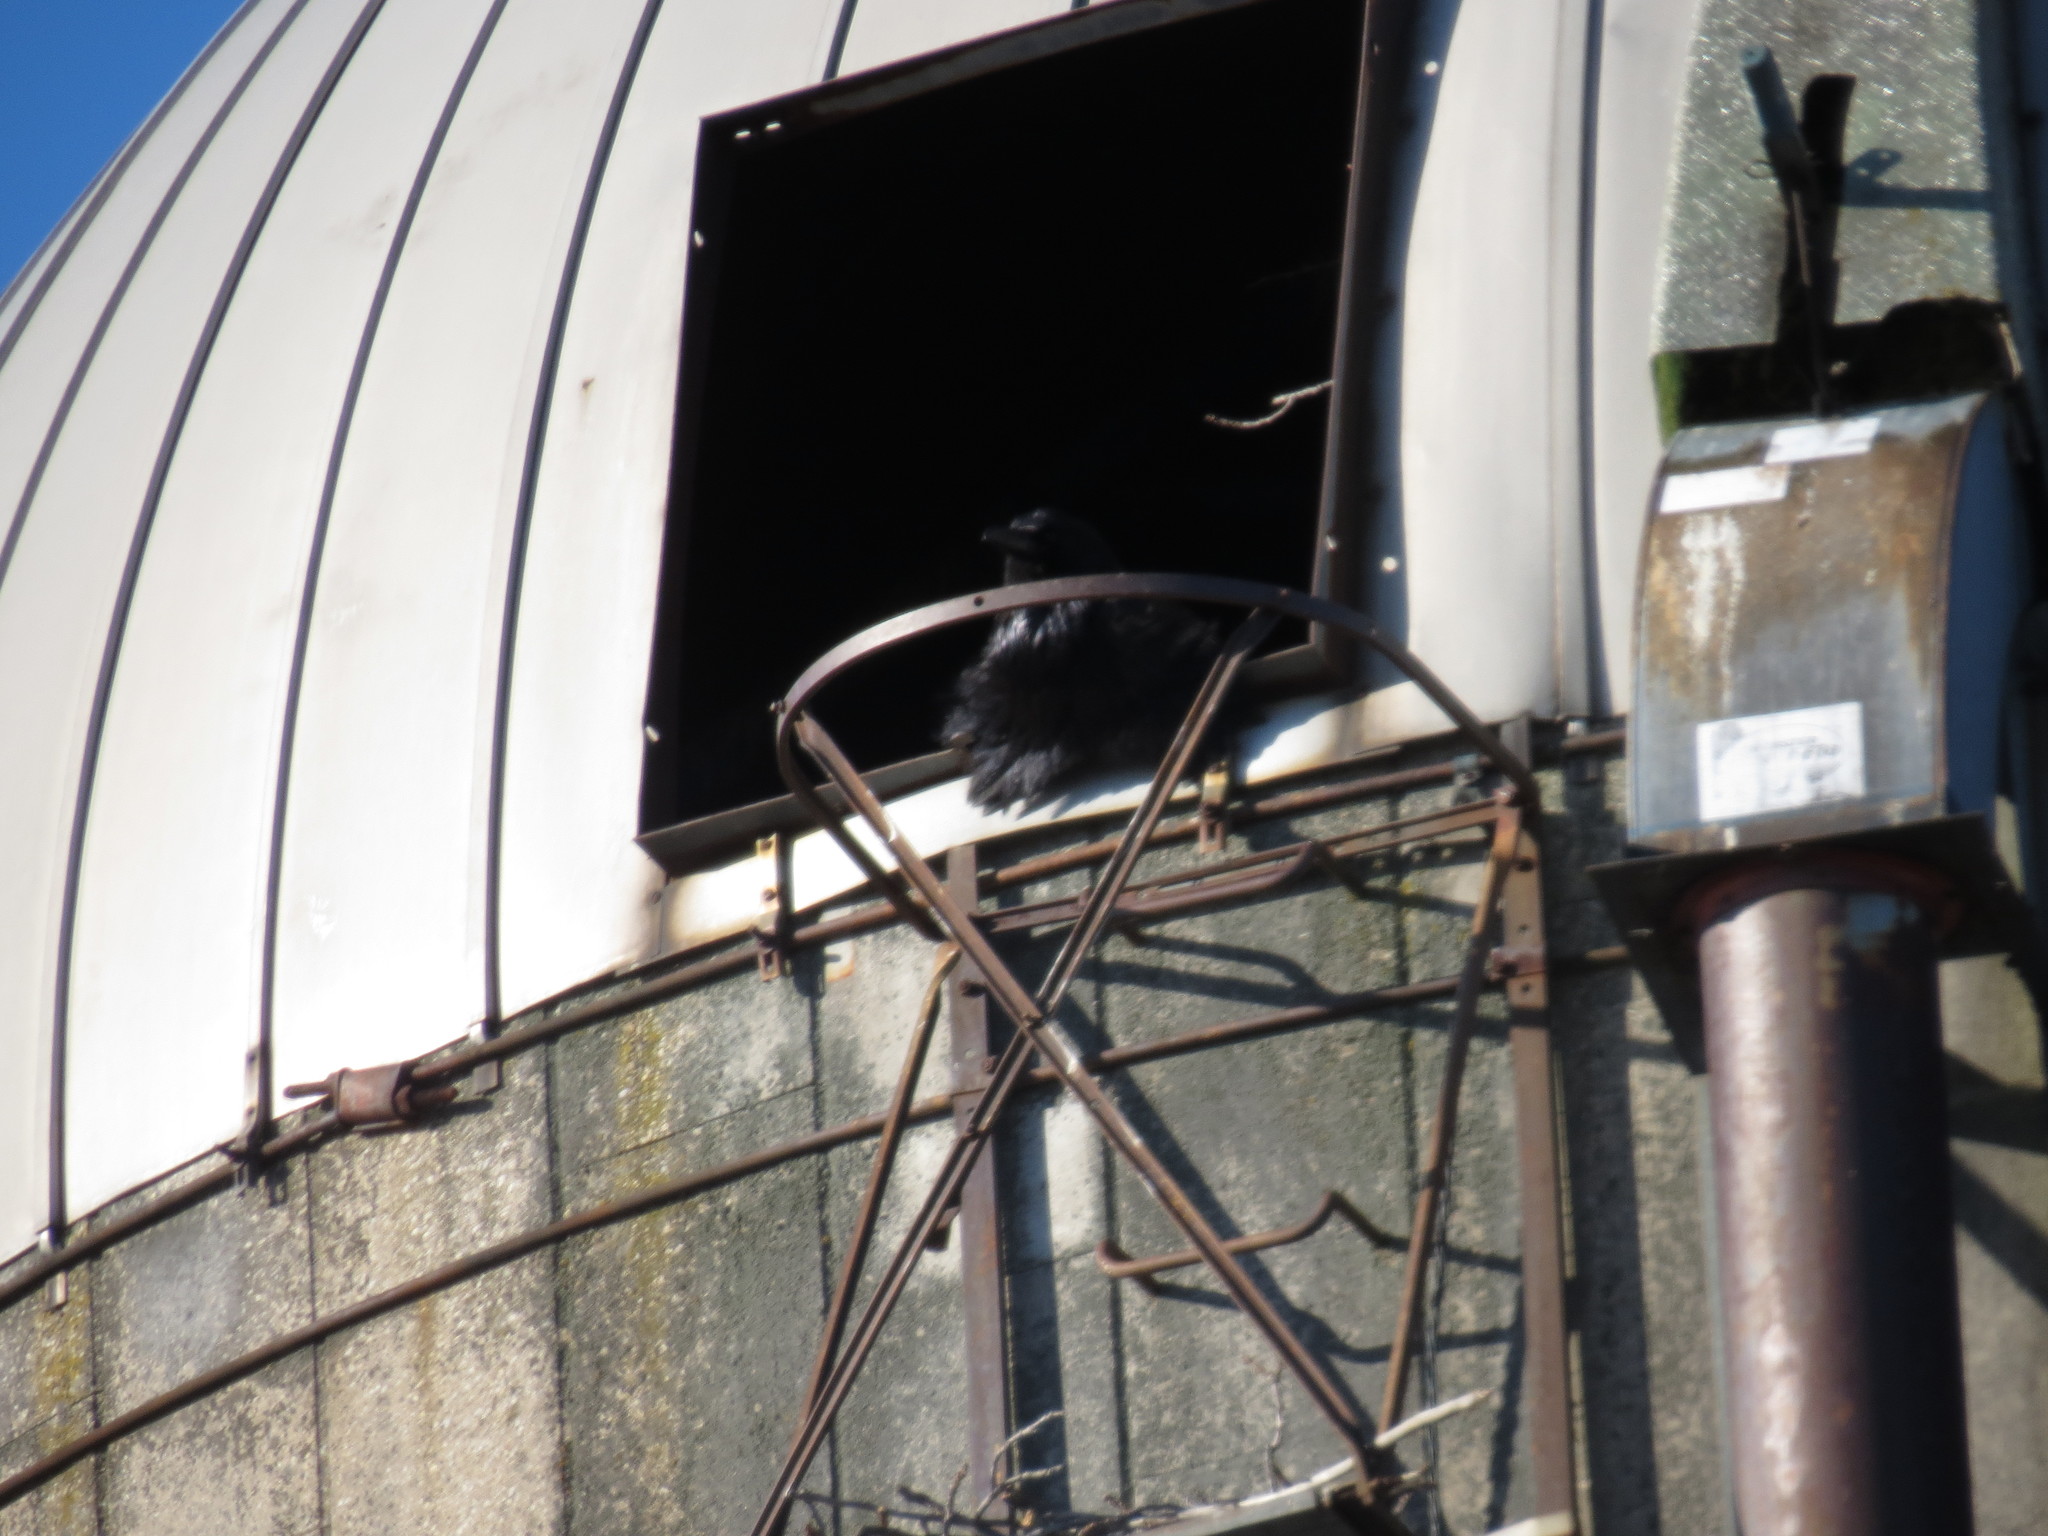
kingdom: Animalia
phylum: Chordata
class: Aves
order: Passeriformes
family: Corvidae
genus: Corvus
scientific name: Corvus corax
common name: Common raven
